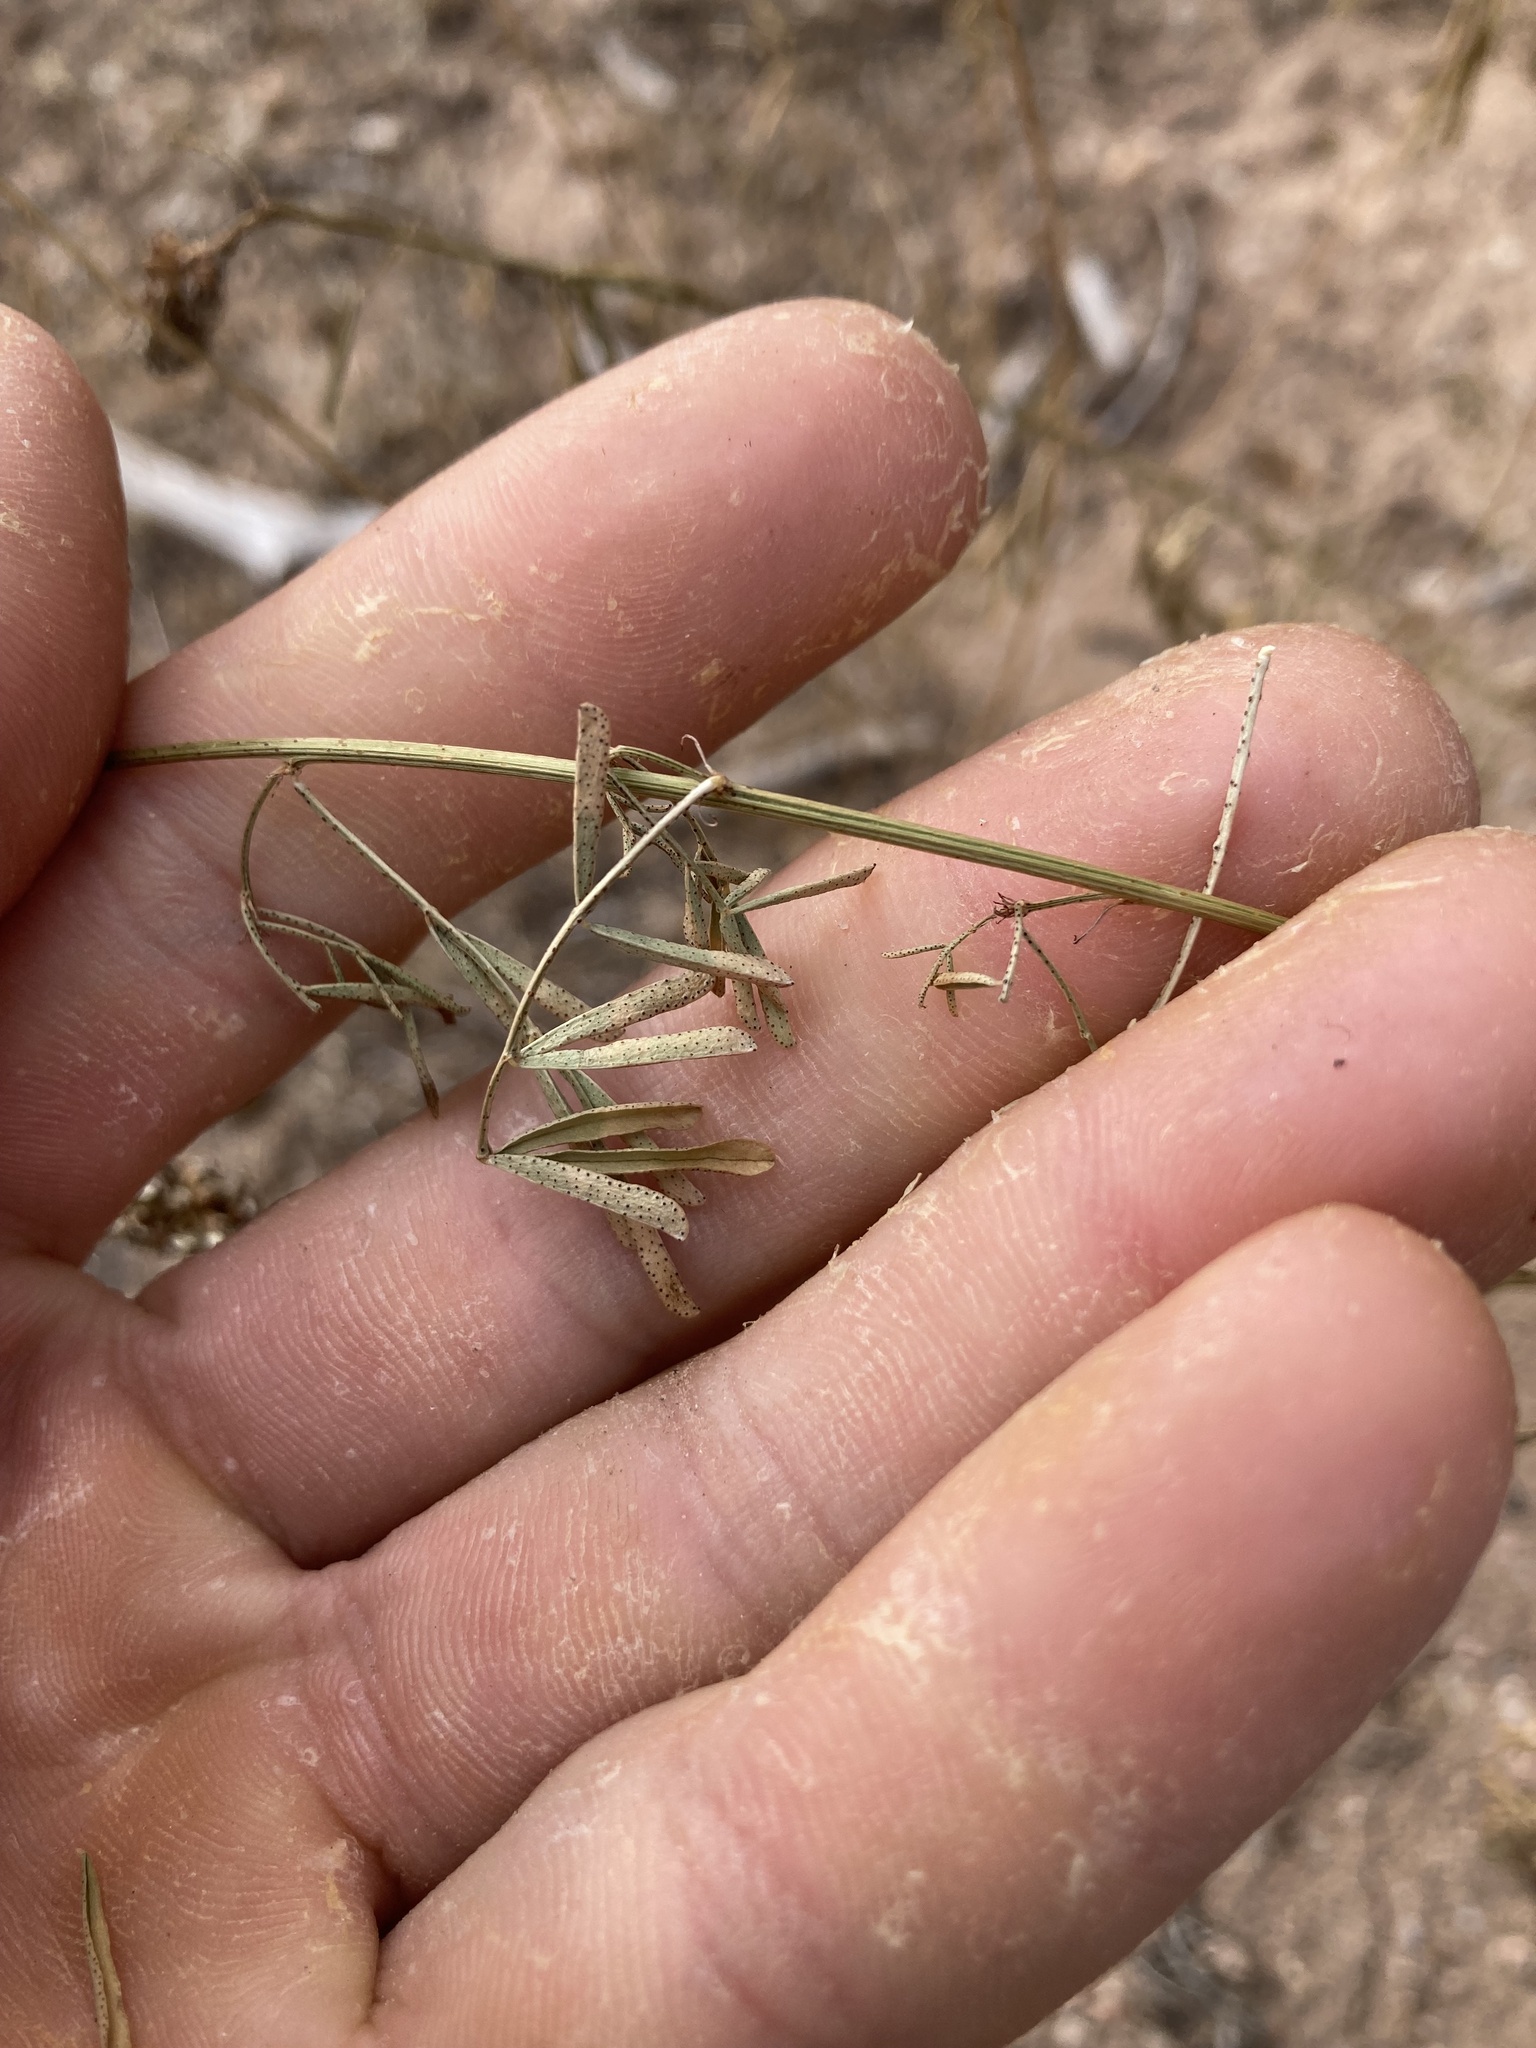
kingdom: Plantae
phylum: Tracheophyta
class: Magnoliopsida
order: Fabales
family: Fabaceae
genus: Dalea
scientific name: Dalea candida
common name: White prairie-clover
